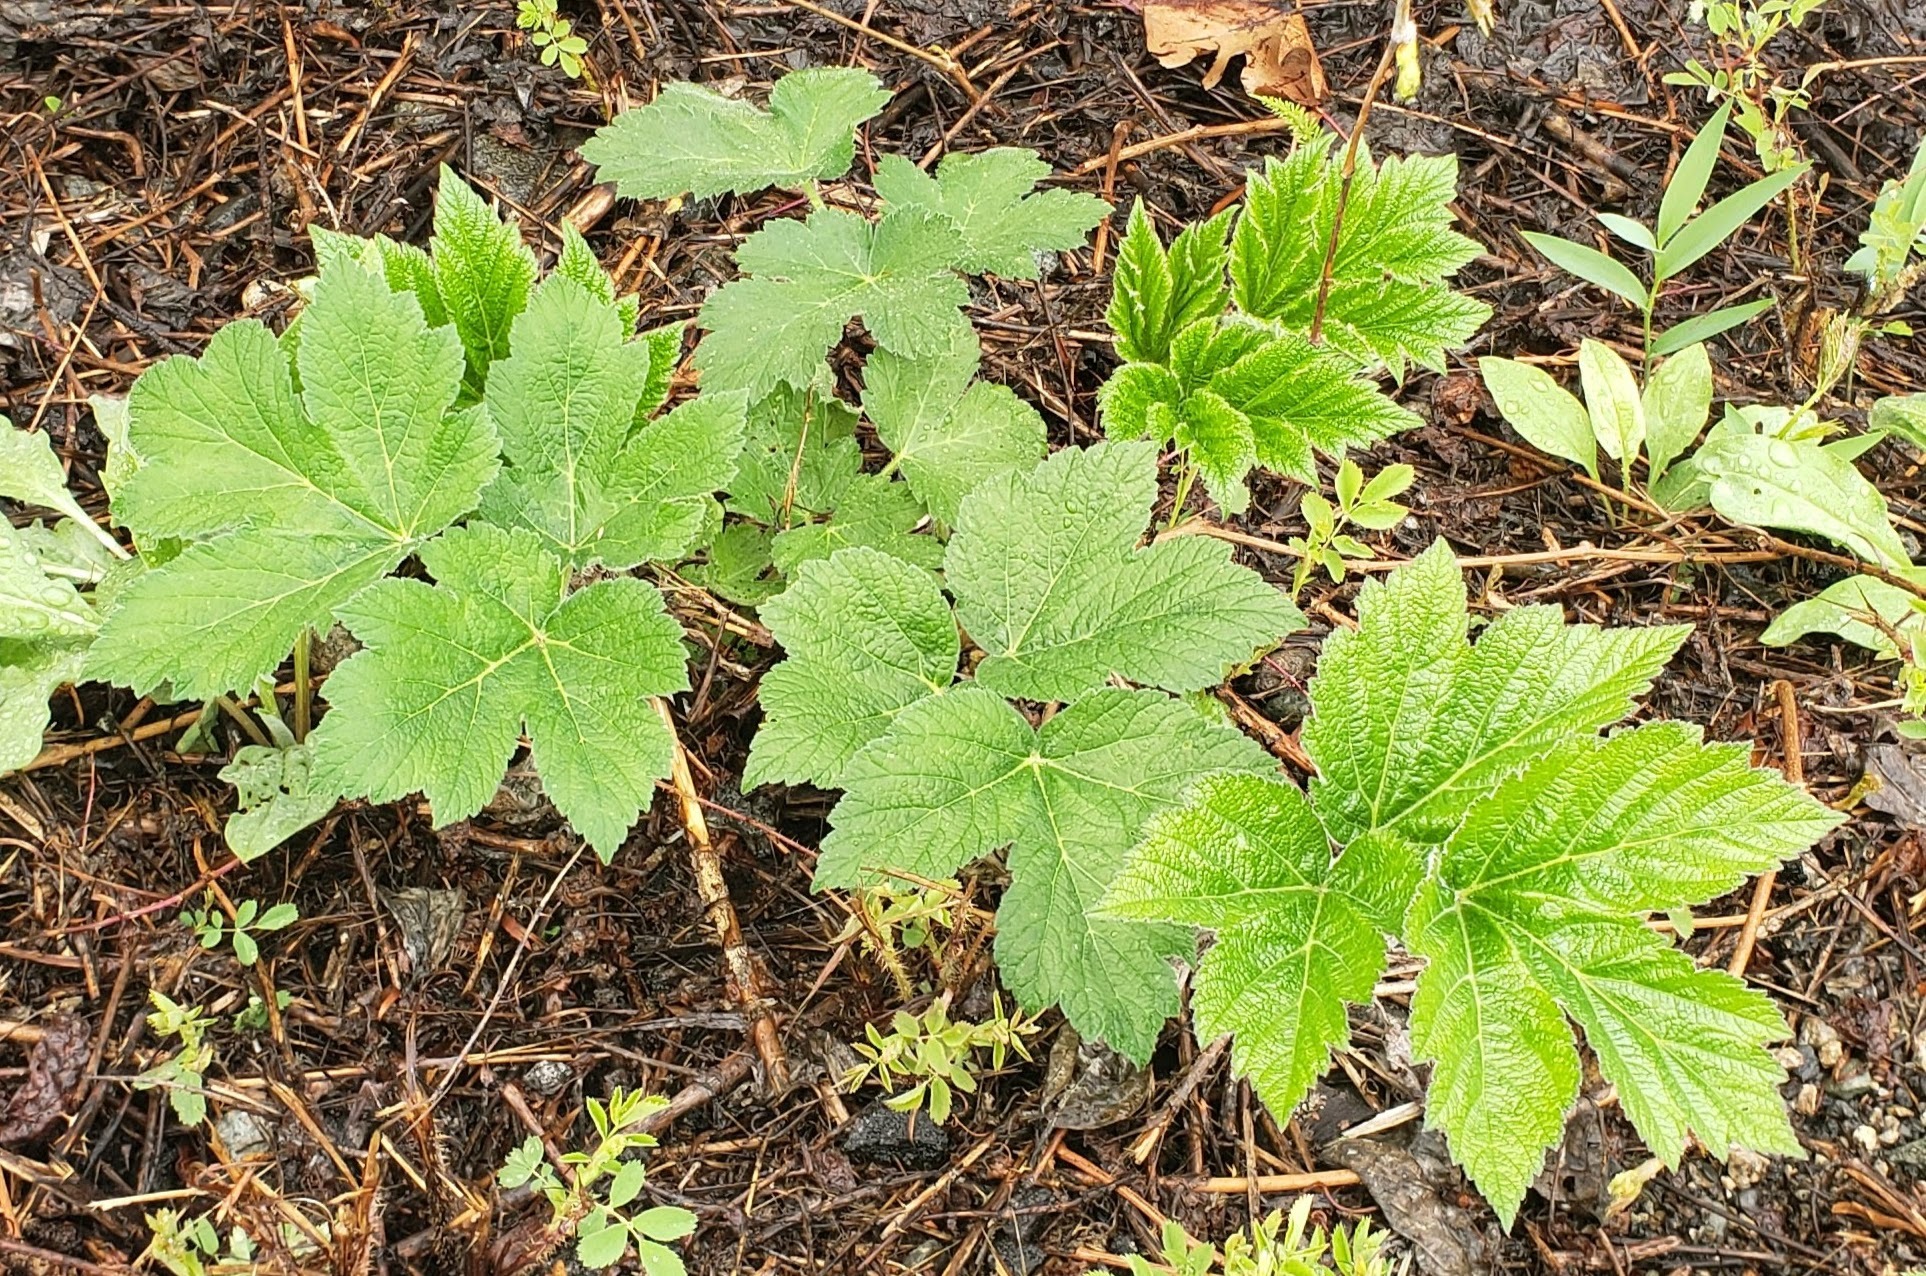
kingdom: Plantae
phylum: Tracheophyta
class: Magnoliopsida
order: Apiales
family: Apiaceae
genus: Heracleum
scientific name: Heracleum maximum
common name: American cow parsnip
